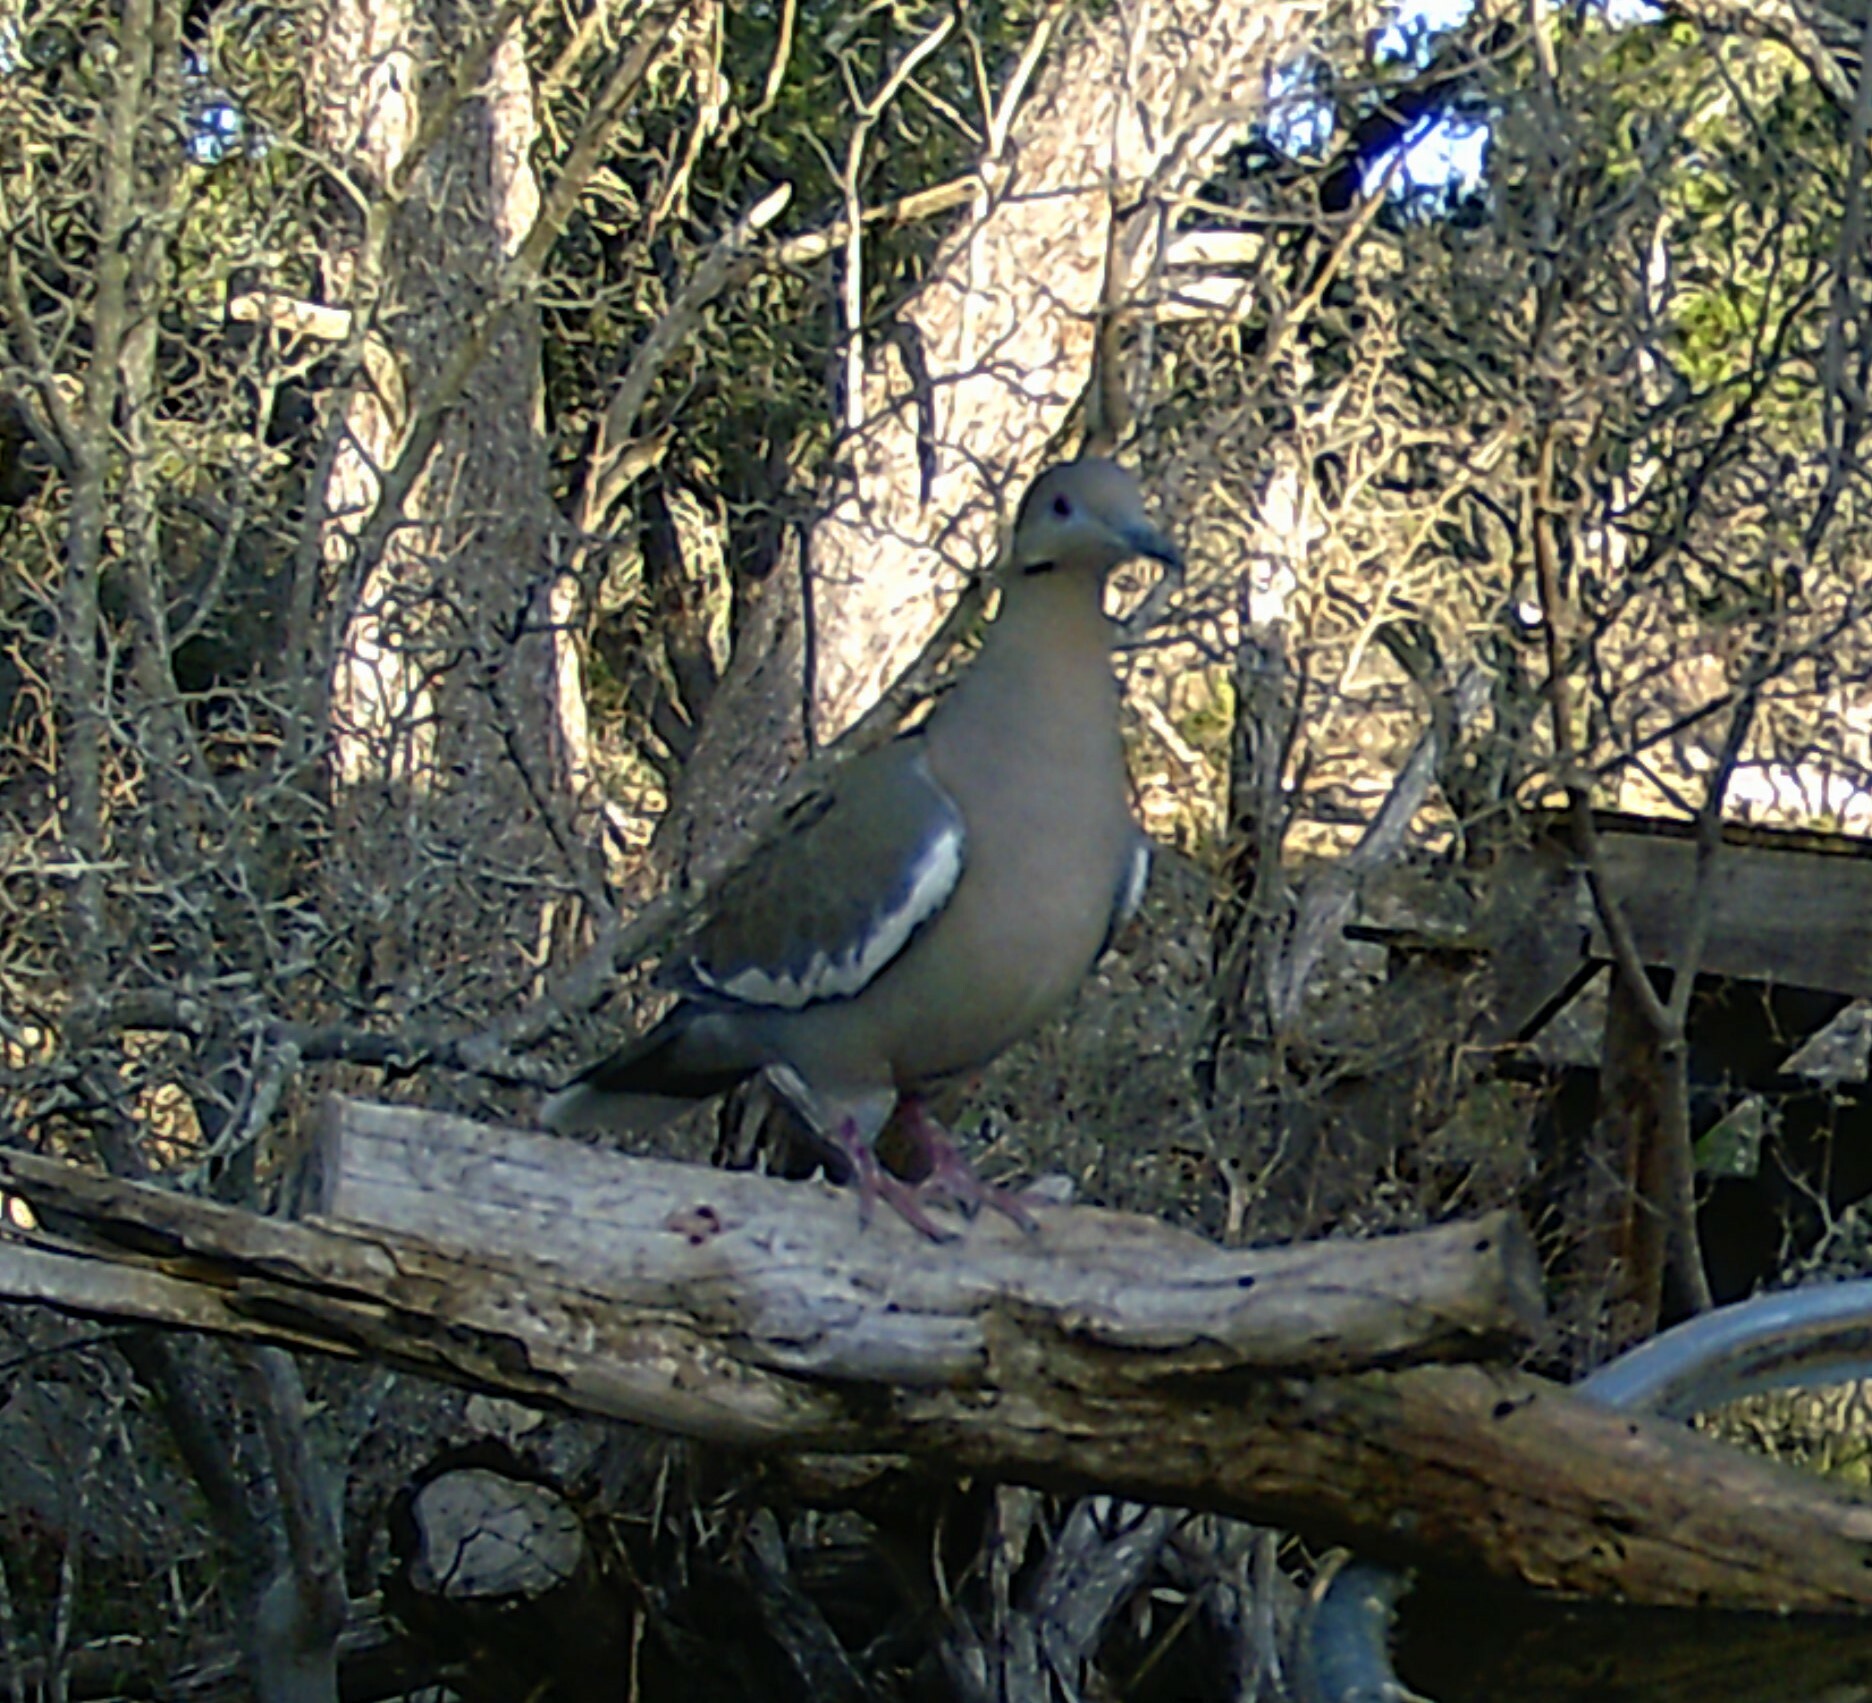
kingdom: Animalia
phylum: Chordata
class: Aves
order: Columbiformes
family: Columbidae
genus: Zenaida
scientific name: Zenaida asiatica
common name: White-winged dove
